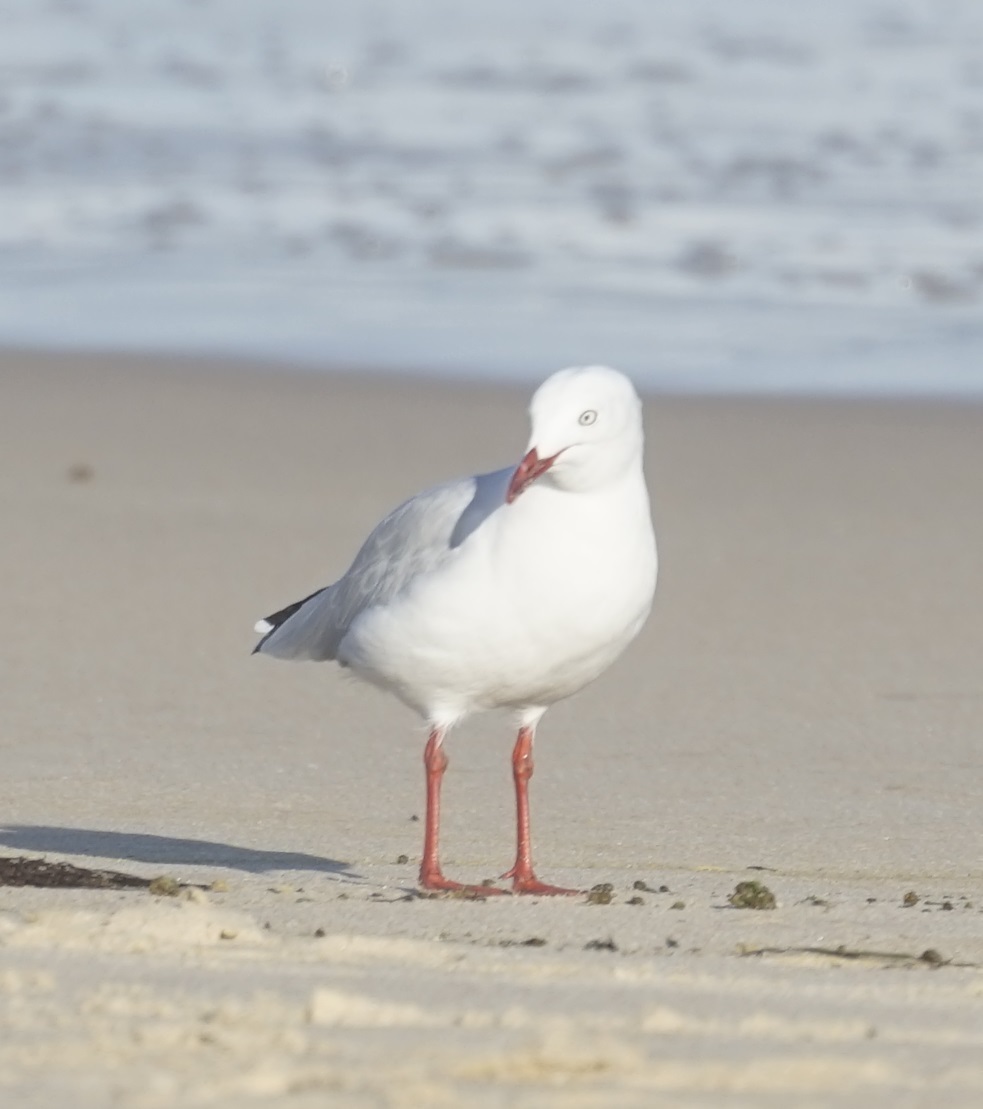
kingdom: Animalia
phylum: Chordata
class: Aves
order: Charadriiformes
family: Laridae
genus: Chroicocephalus
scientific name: Chroicocephalus novaehollandiae
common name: Silver gull
